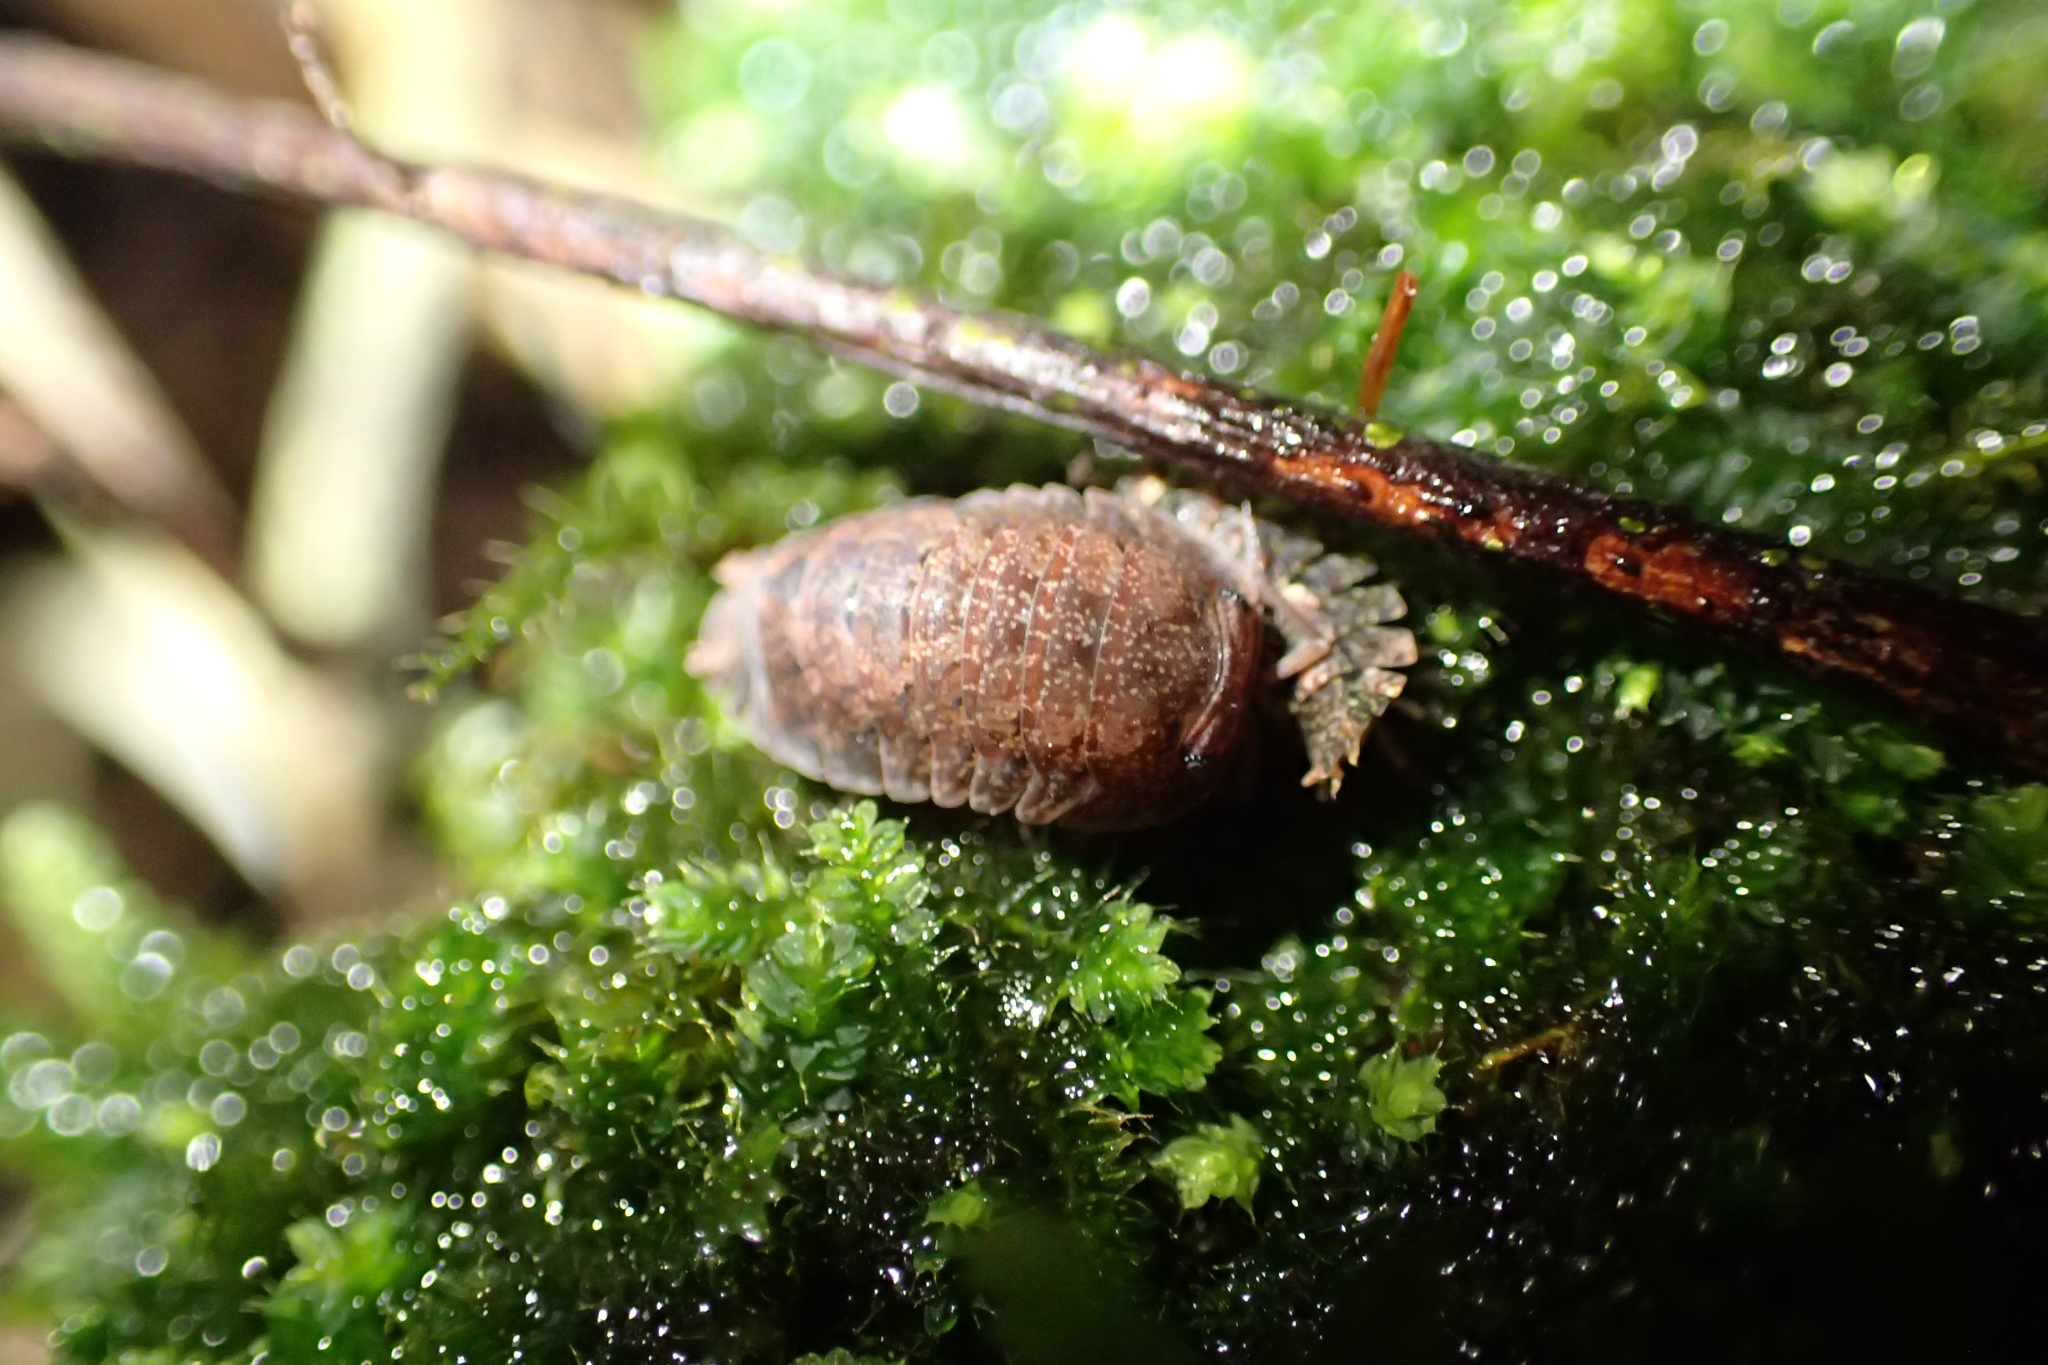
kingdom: Animalia
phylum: Arthropoda
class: Malacostraca
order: Isopoda
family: Armadillidae
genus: Cubaris
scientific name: Cubaris tarangensis
